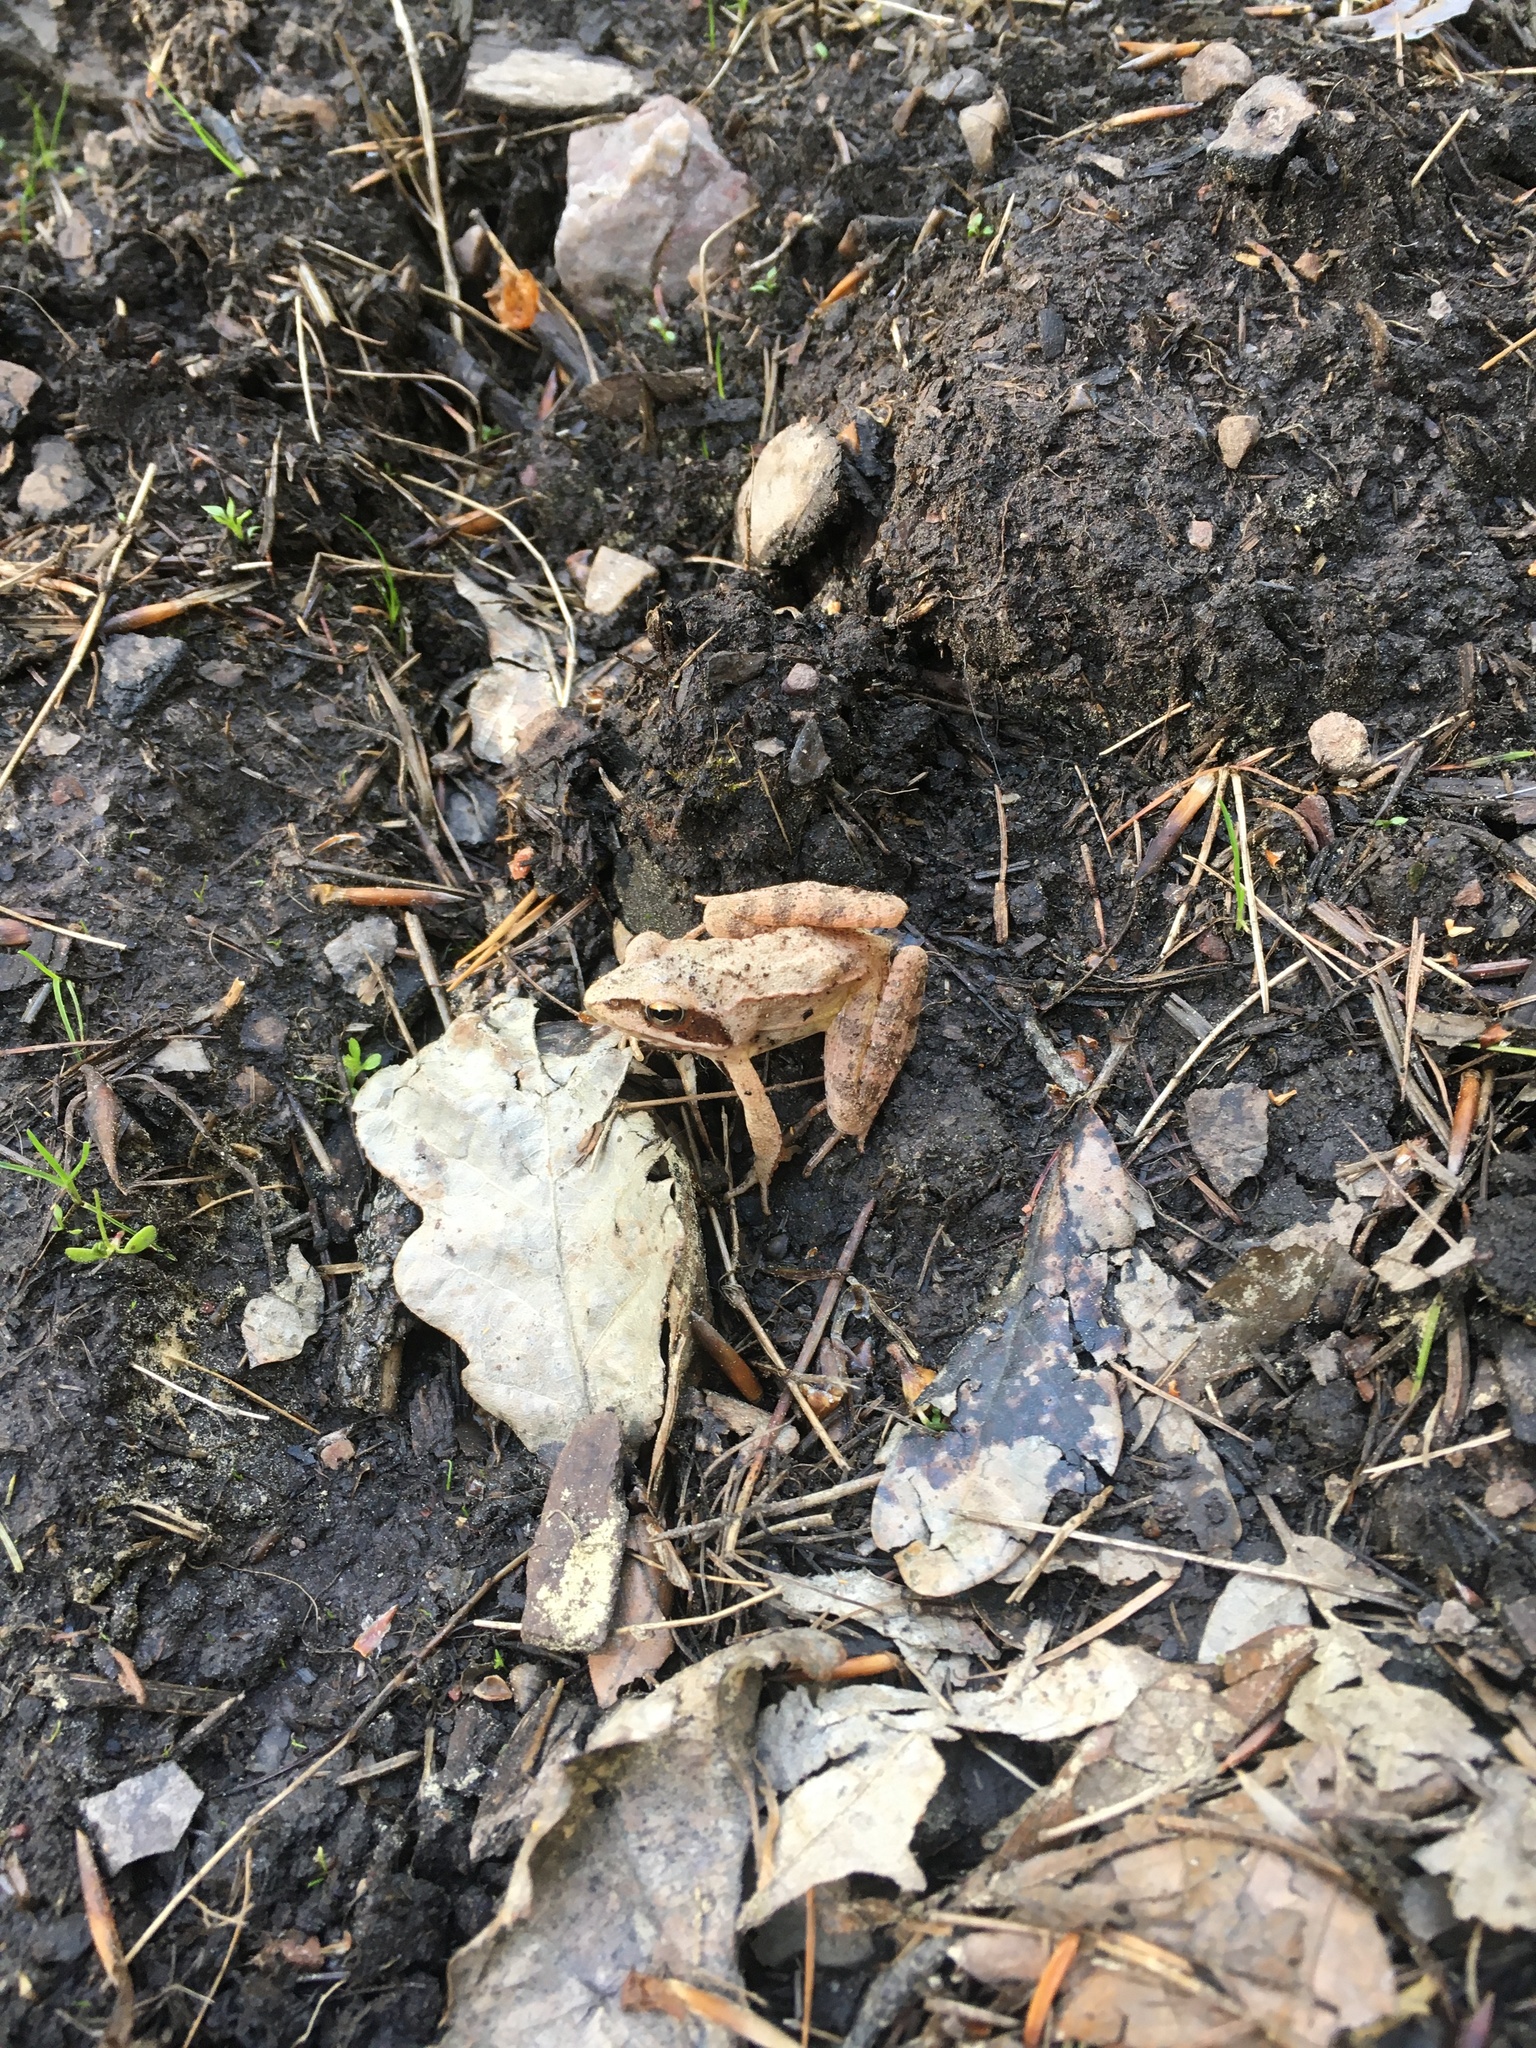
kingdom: Animalia
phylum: Chordata
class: Amphibia
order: Anura
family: Ranidae
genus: Rana
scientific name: Rana dalmatina
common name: Agile frog
